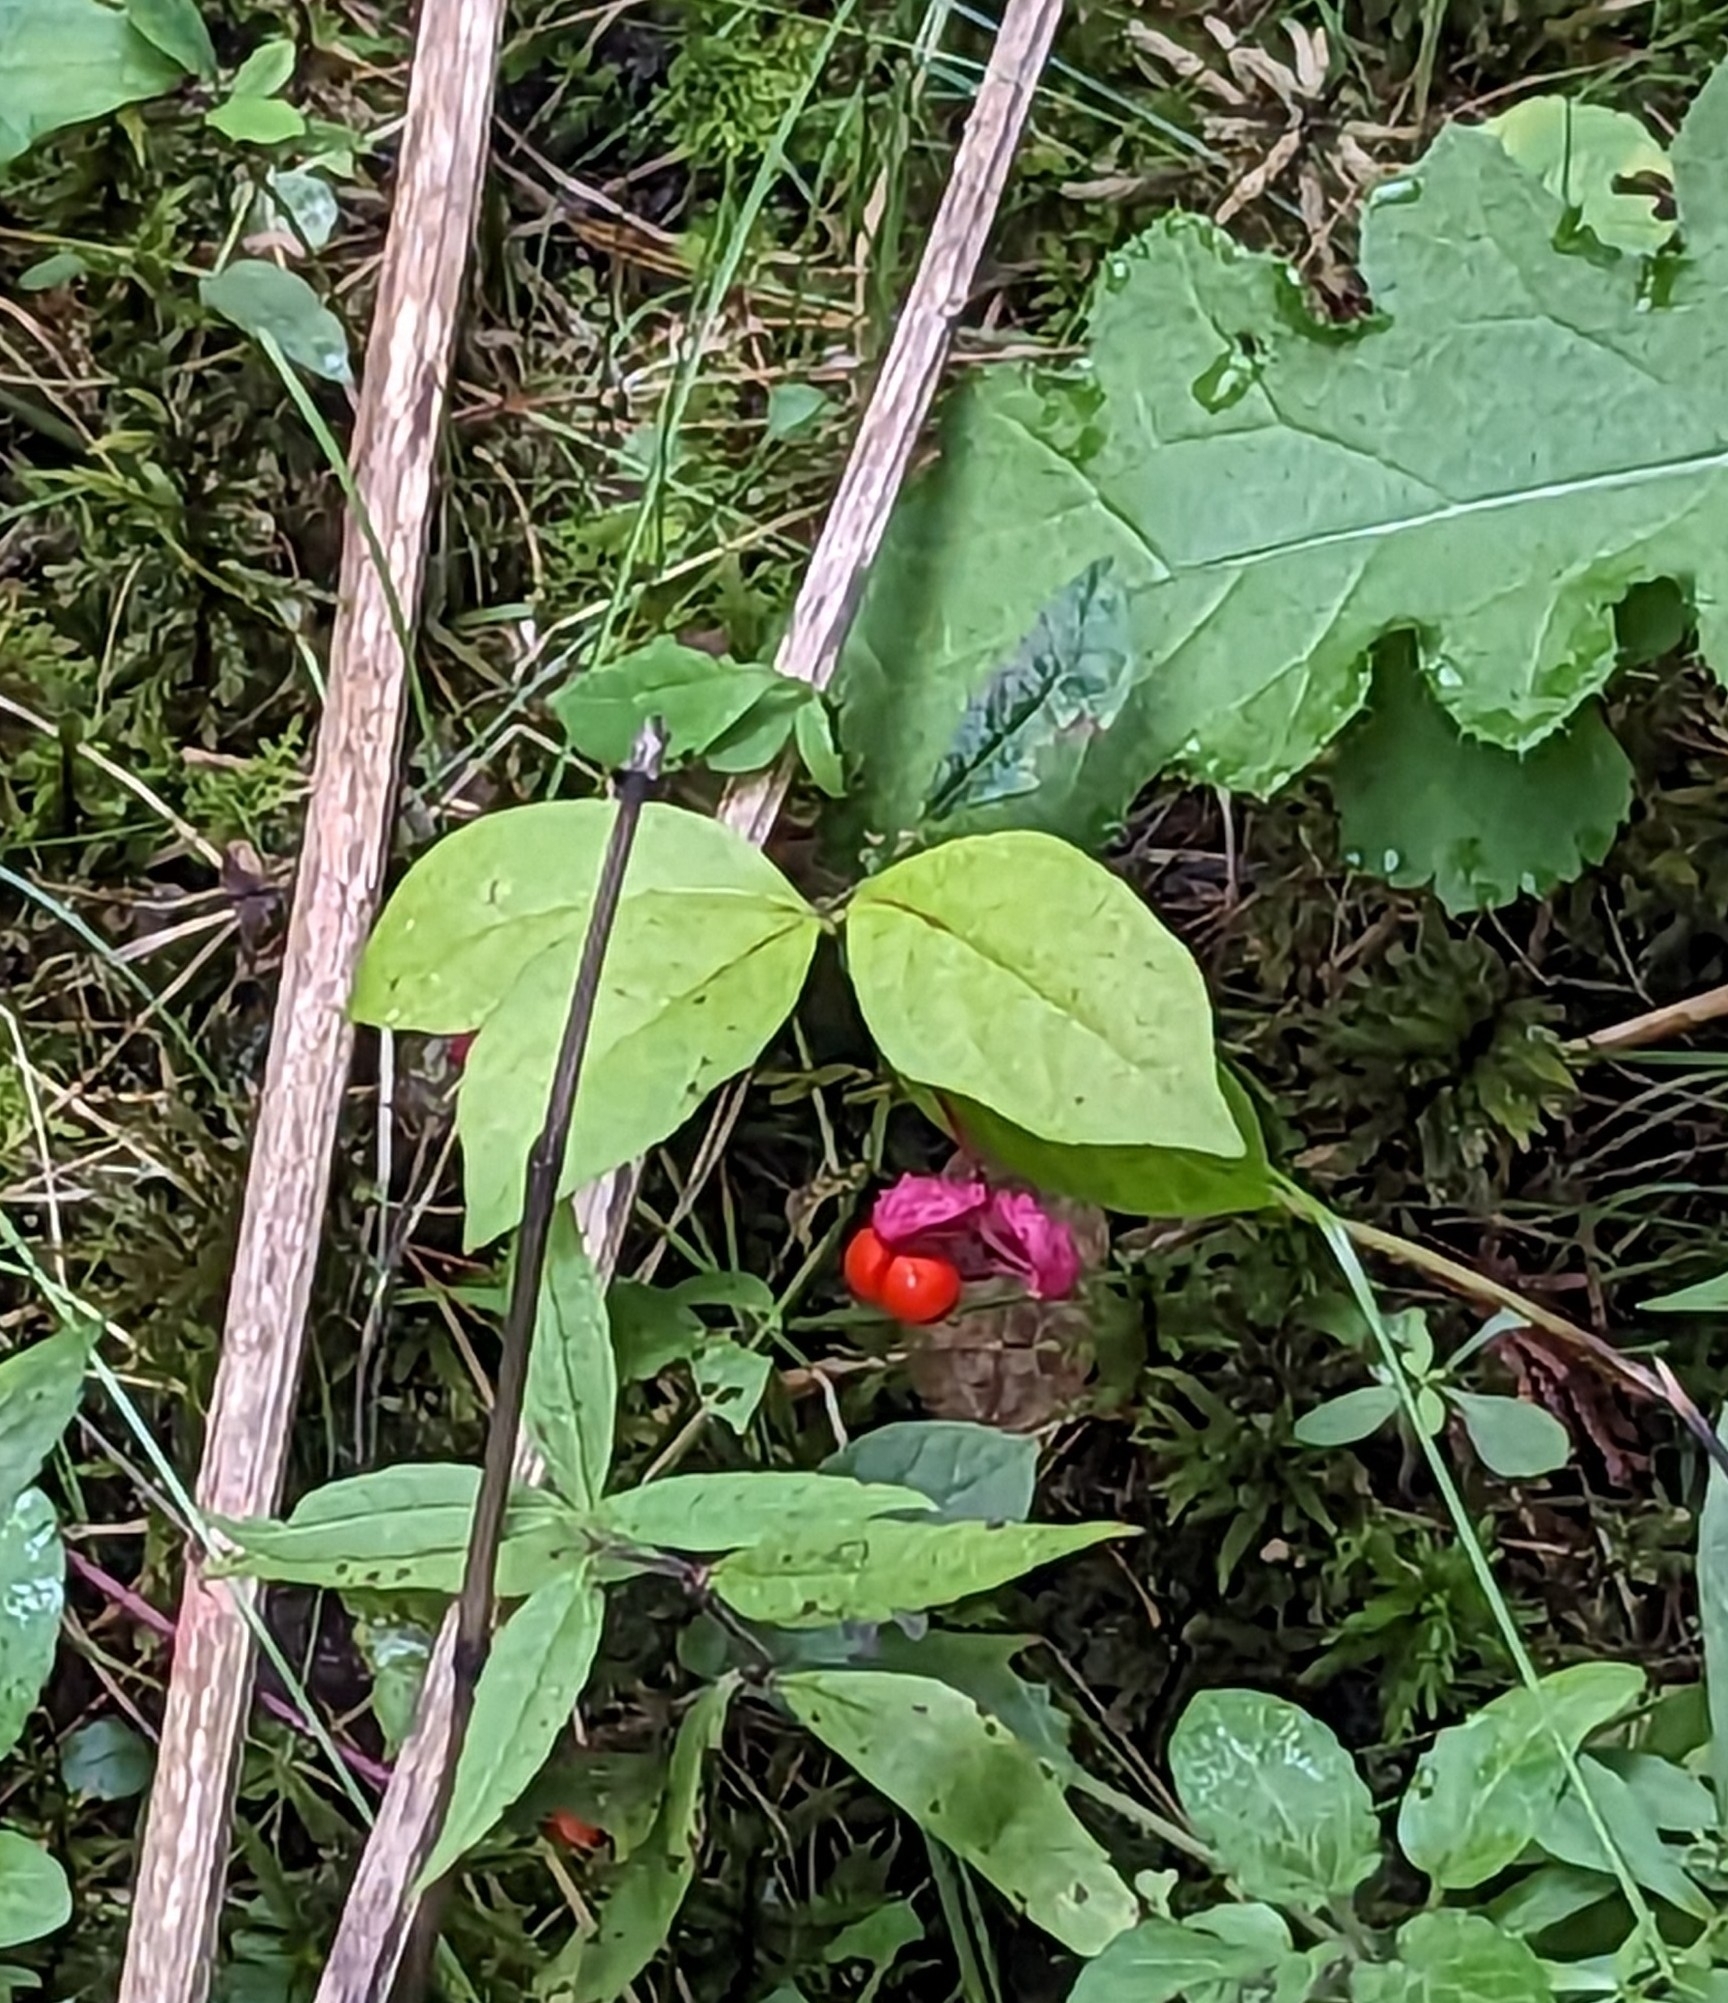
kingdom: Plantae
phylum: Tracheophyta
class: Magnoliopsida
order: Celastrales
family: Celastraceae
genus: Euonymus
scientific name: Euonymus obovatus
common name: Running strawberry-bush
